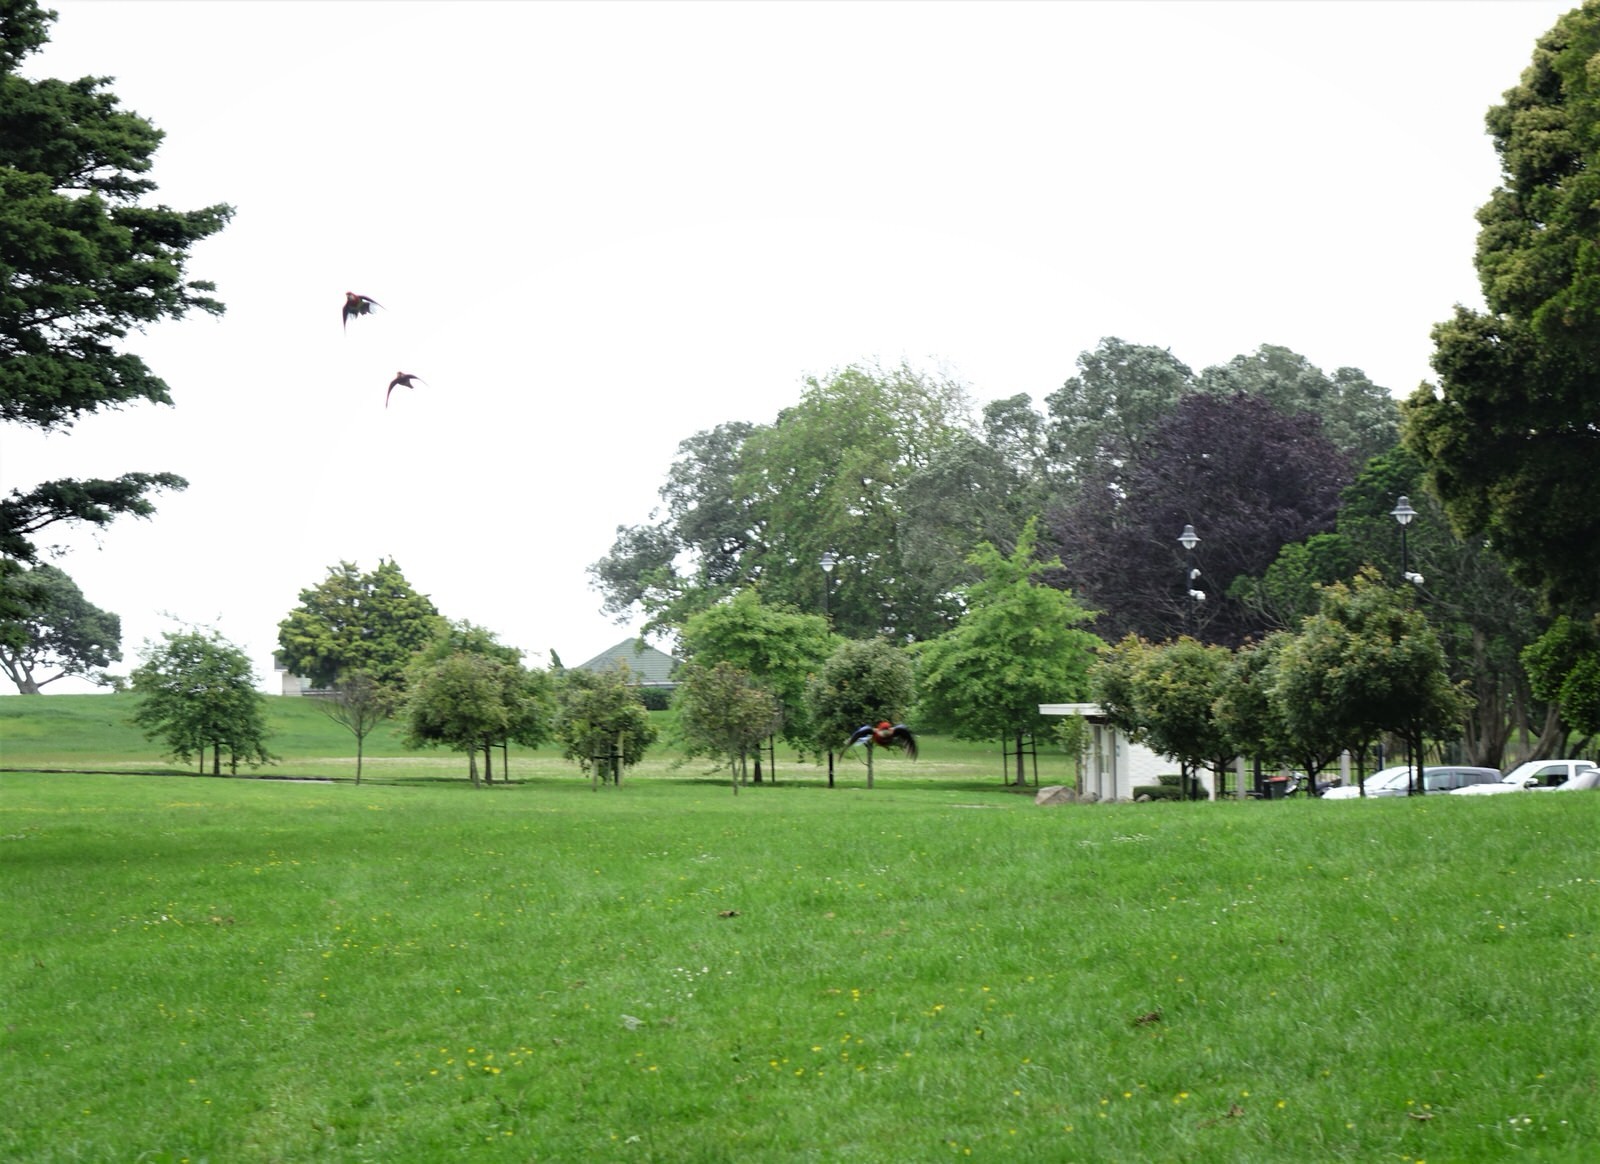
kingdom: Animalia
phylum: Chordata
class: Aves
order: Psittaciformes
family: Psittacidae
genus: Platycercus
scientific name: Platycercus eximius
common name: Eastern rosella
